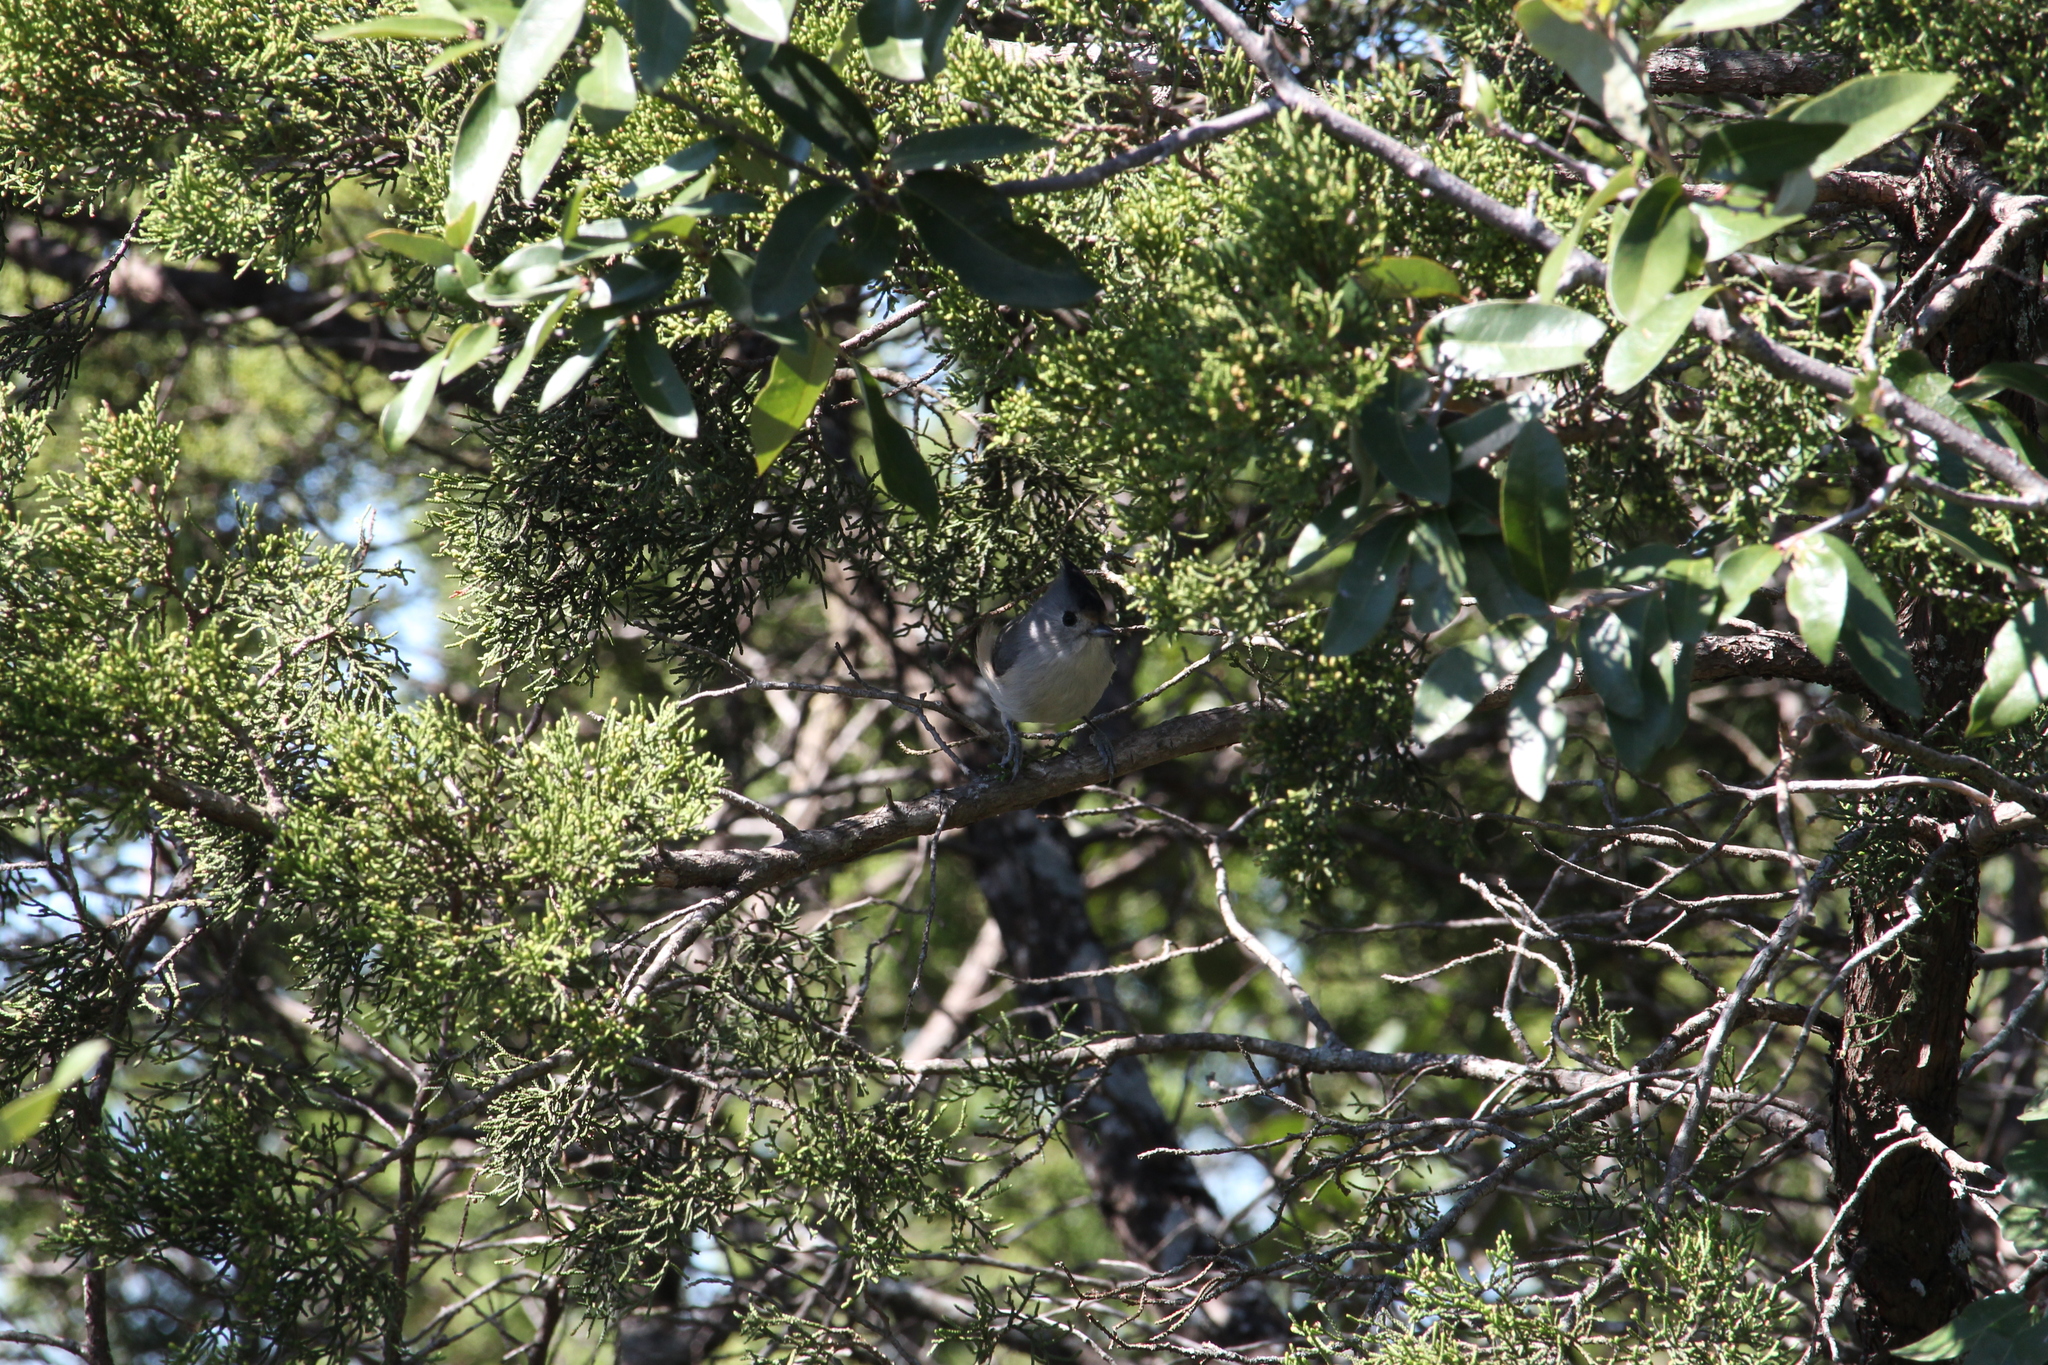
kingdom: Animalia
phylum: Chordata
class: Aves
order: Passeriformes
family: Paridae
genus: Baeolophus
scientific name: Baeolophus atricristatus
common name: Black-crested titmouse
